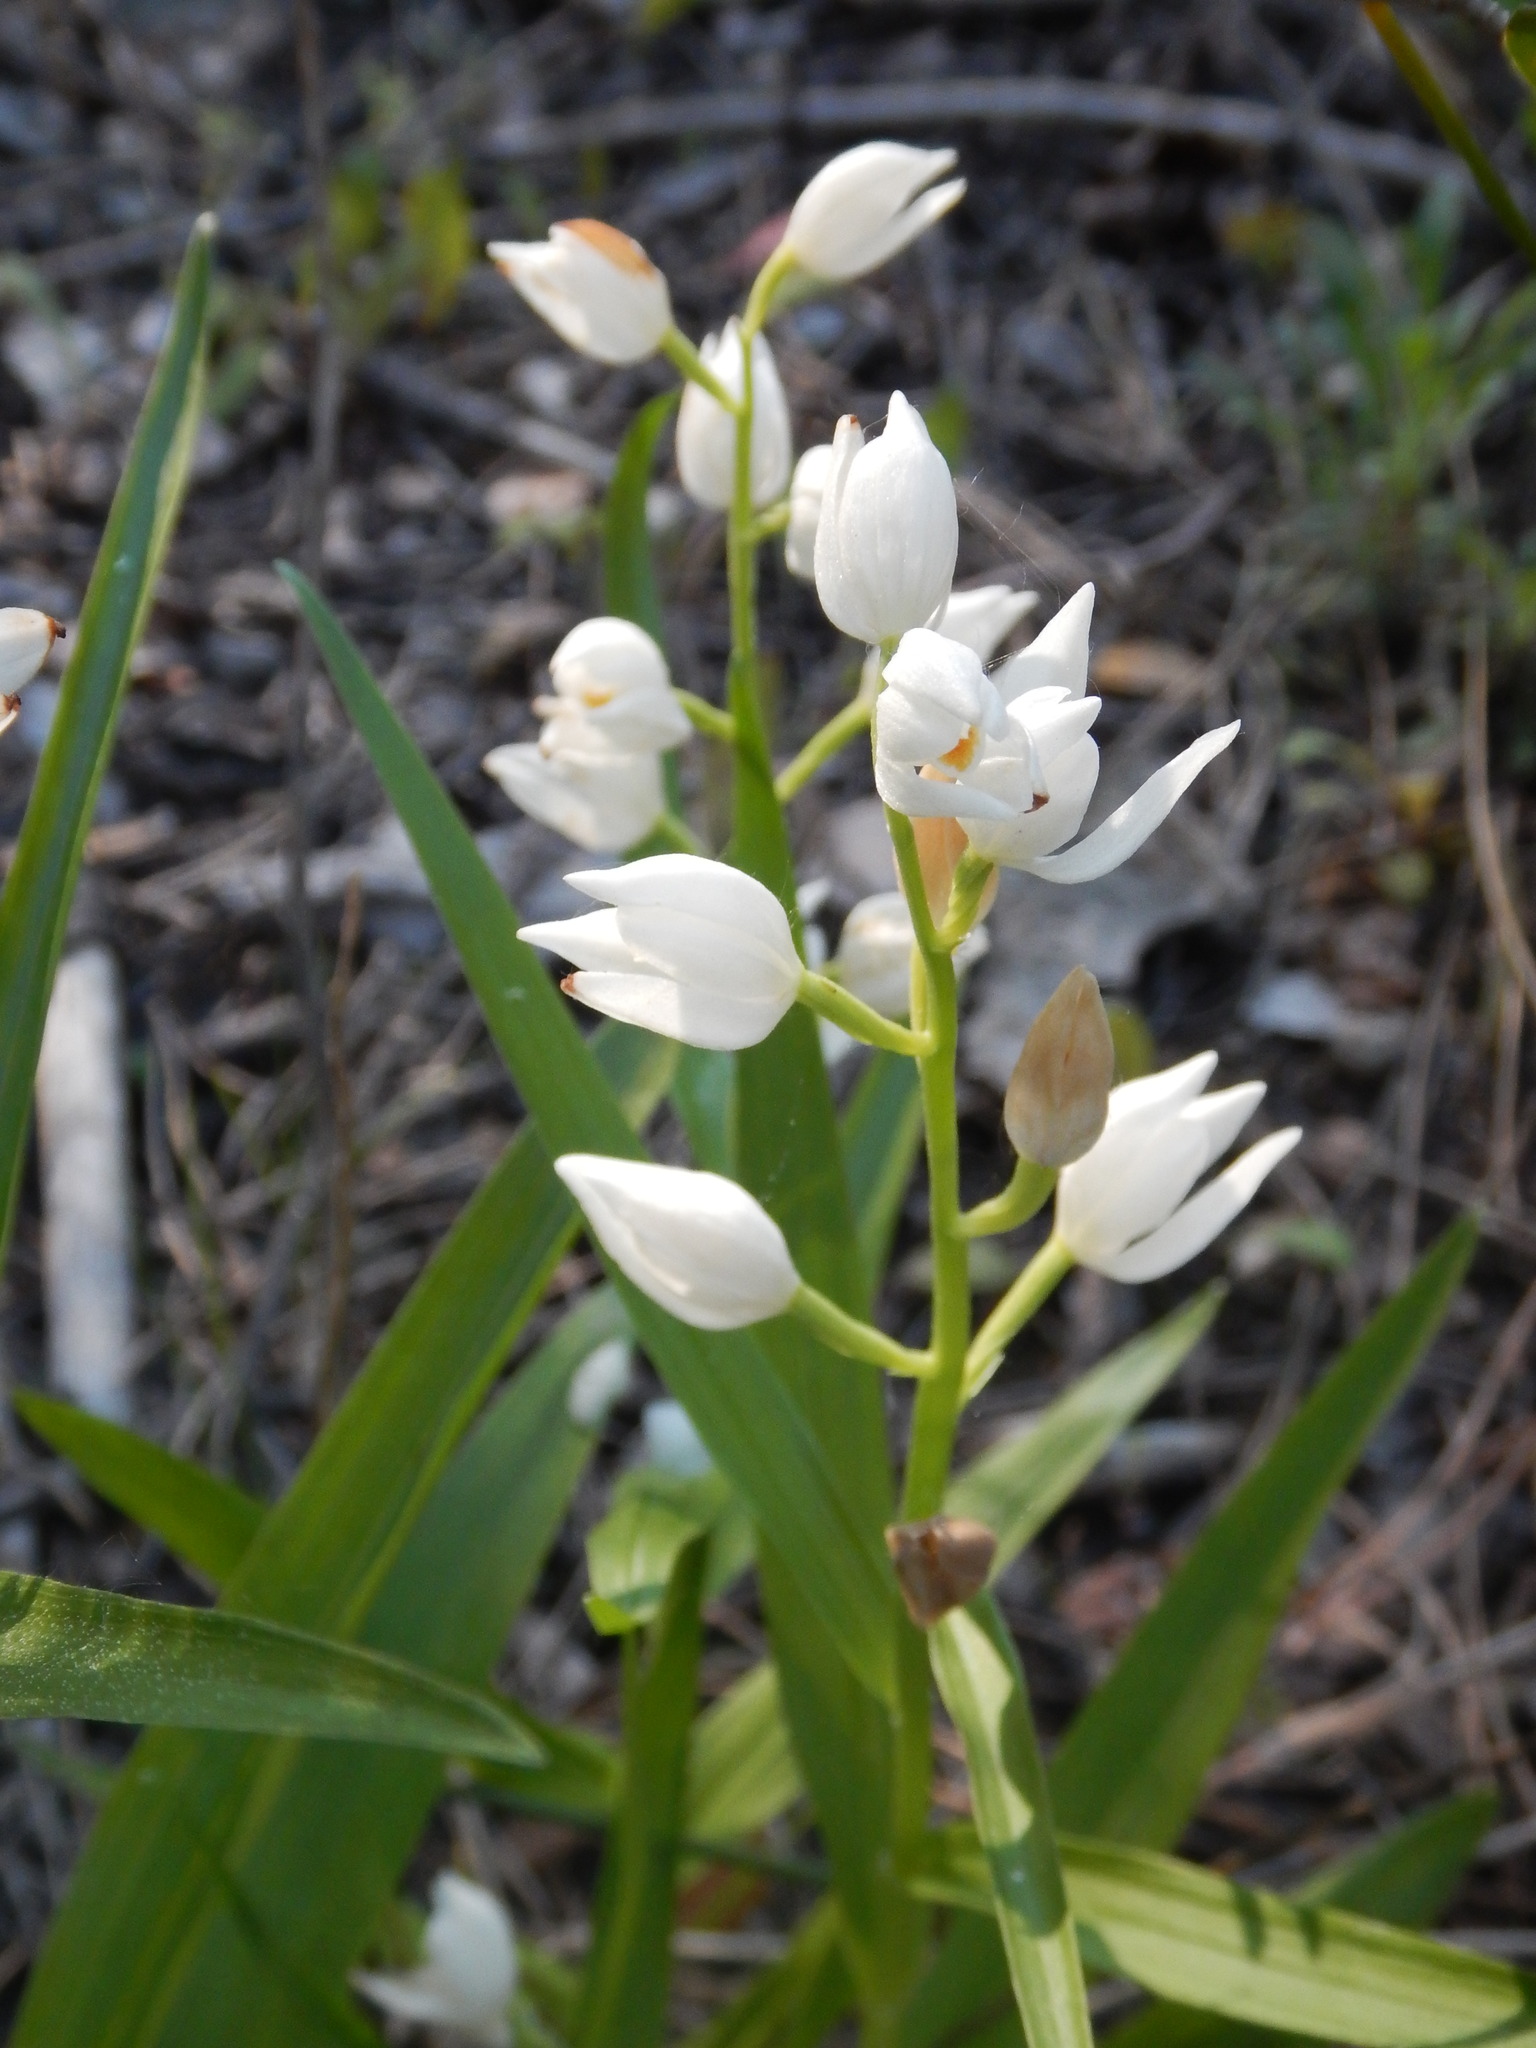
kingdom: Plantae
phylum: Tracheophyta
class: Liliopsida
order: Asparagales
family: Orchidaceae
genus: Cephalanthera
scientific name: Cephalanthera longifolia
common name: Narrow-leaved helleborine
